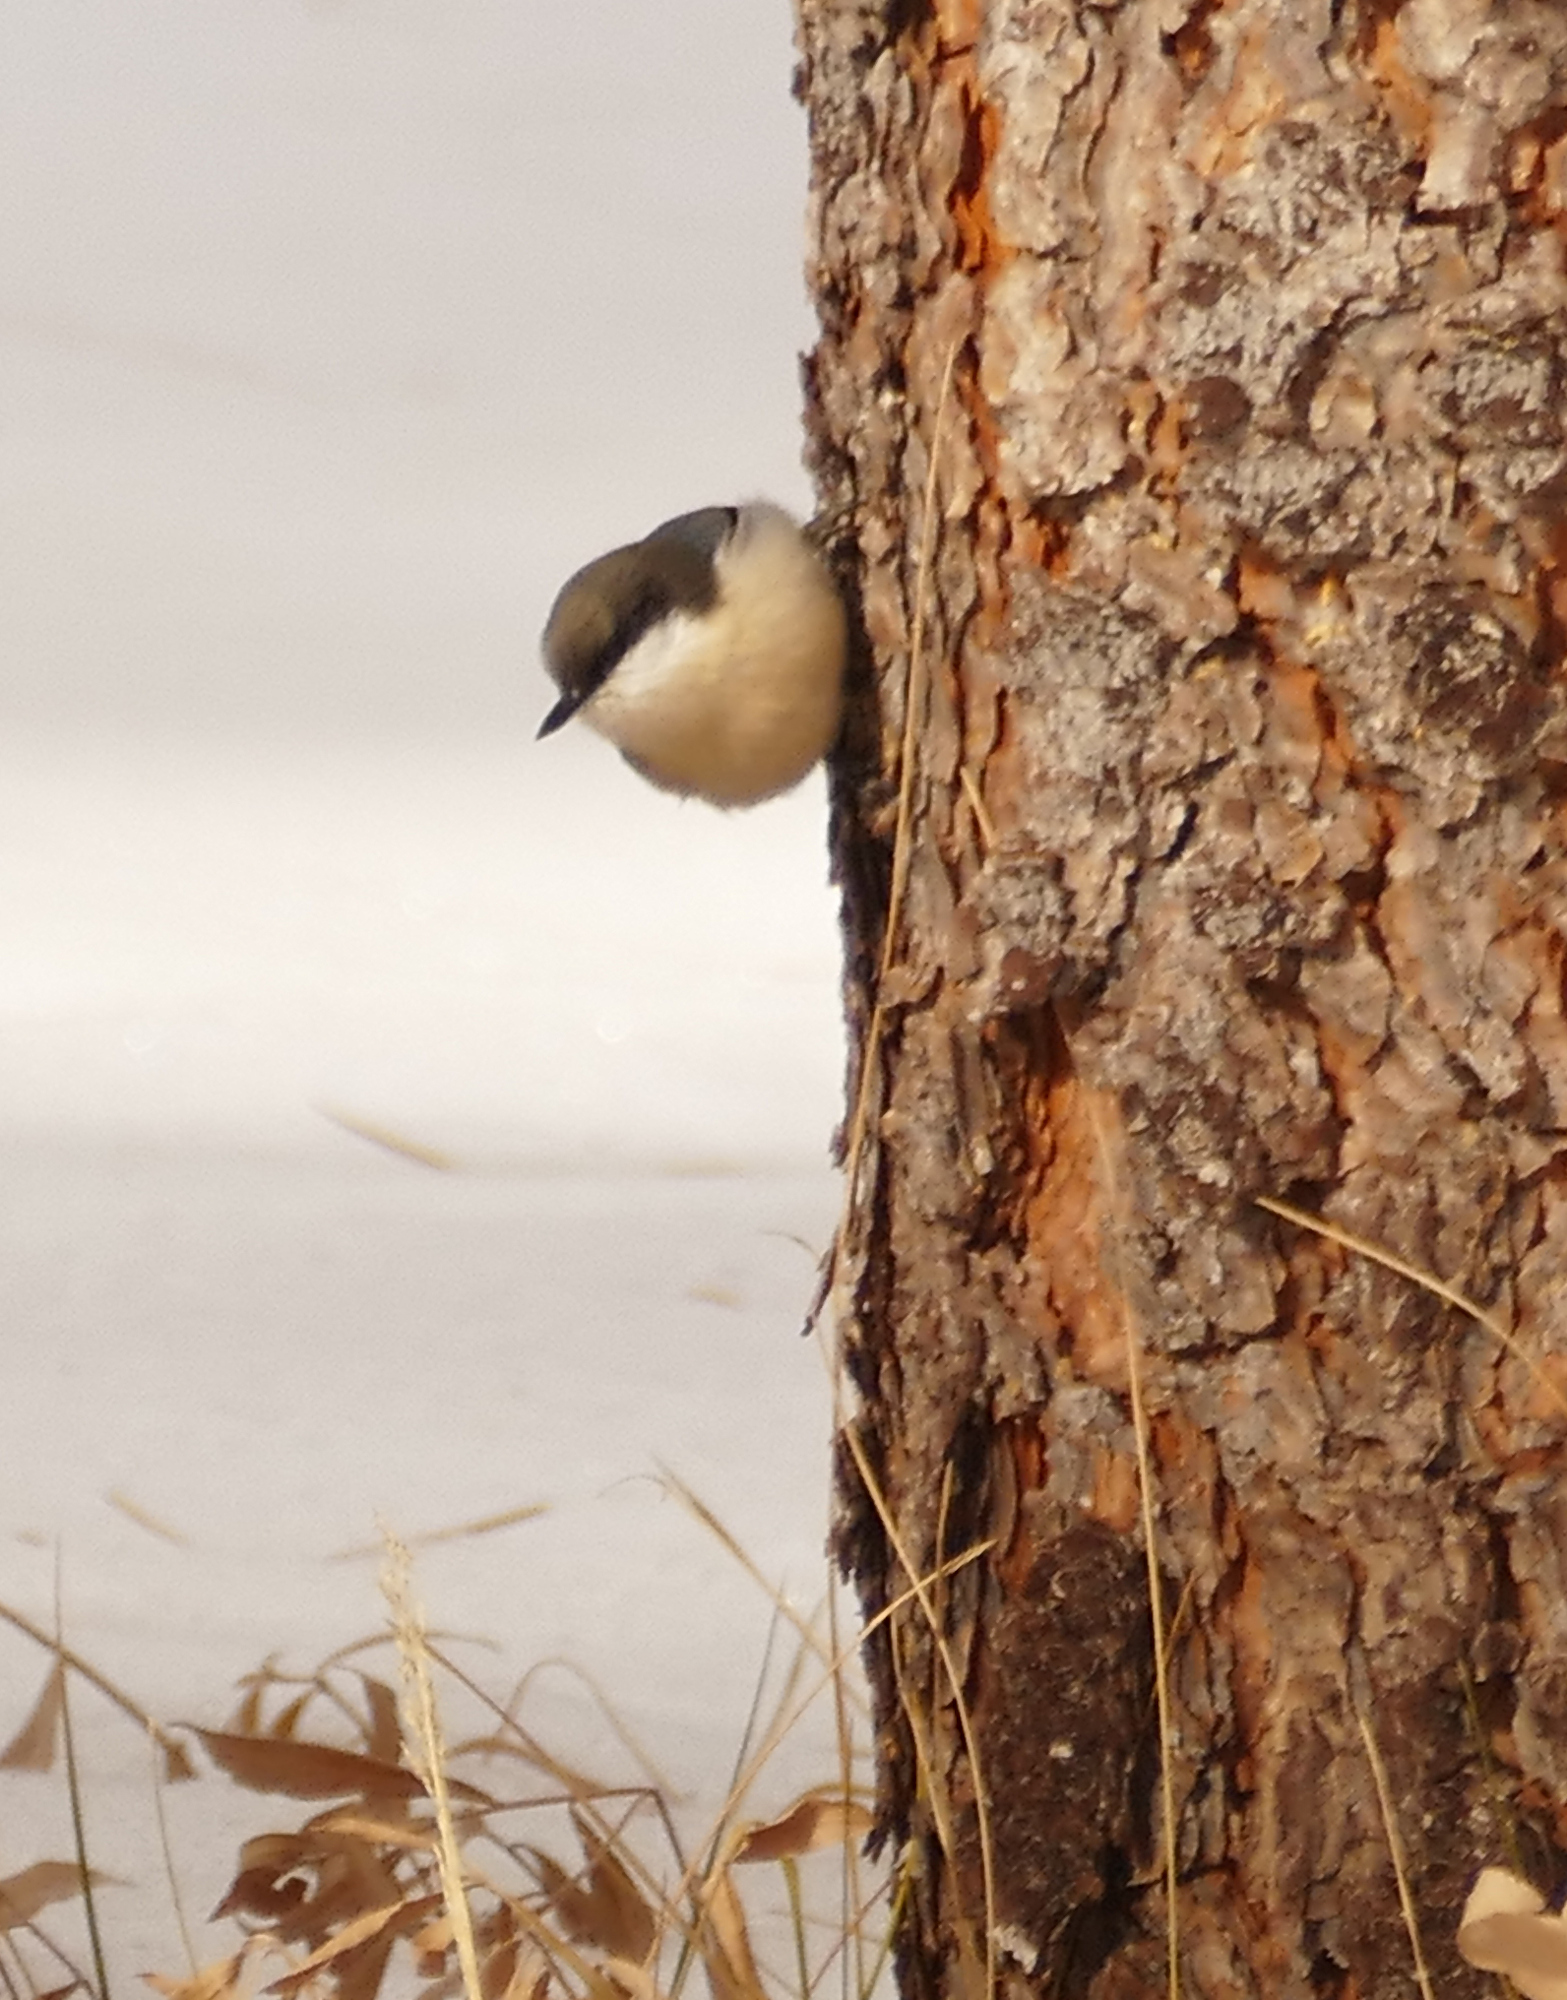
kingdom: Animalia
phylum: Chordata
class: Aves
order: Passeriformes
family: Sittidae
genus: Sitta
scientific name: Sitta pygmaea
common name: Pygmy nuthatch
